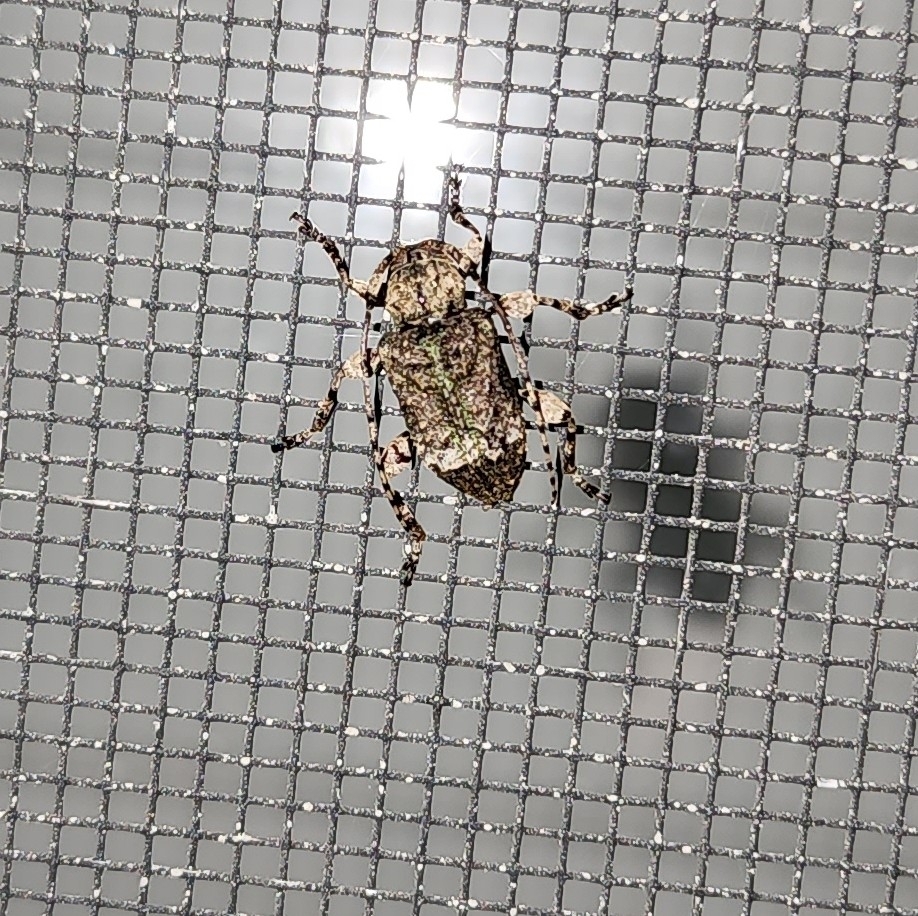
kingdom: Animalia
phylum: Arthropoda
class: Insecta
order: Coleoptera
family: Cerambycidae
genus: Leptostylus
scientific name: Leptostylus transversus
